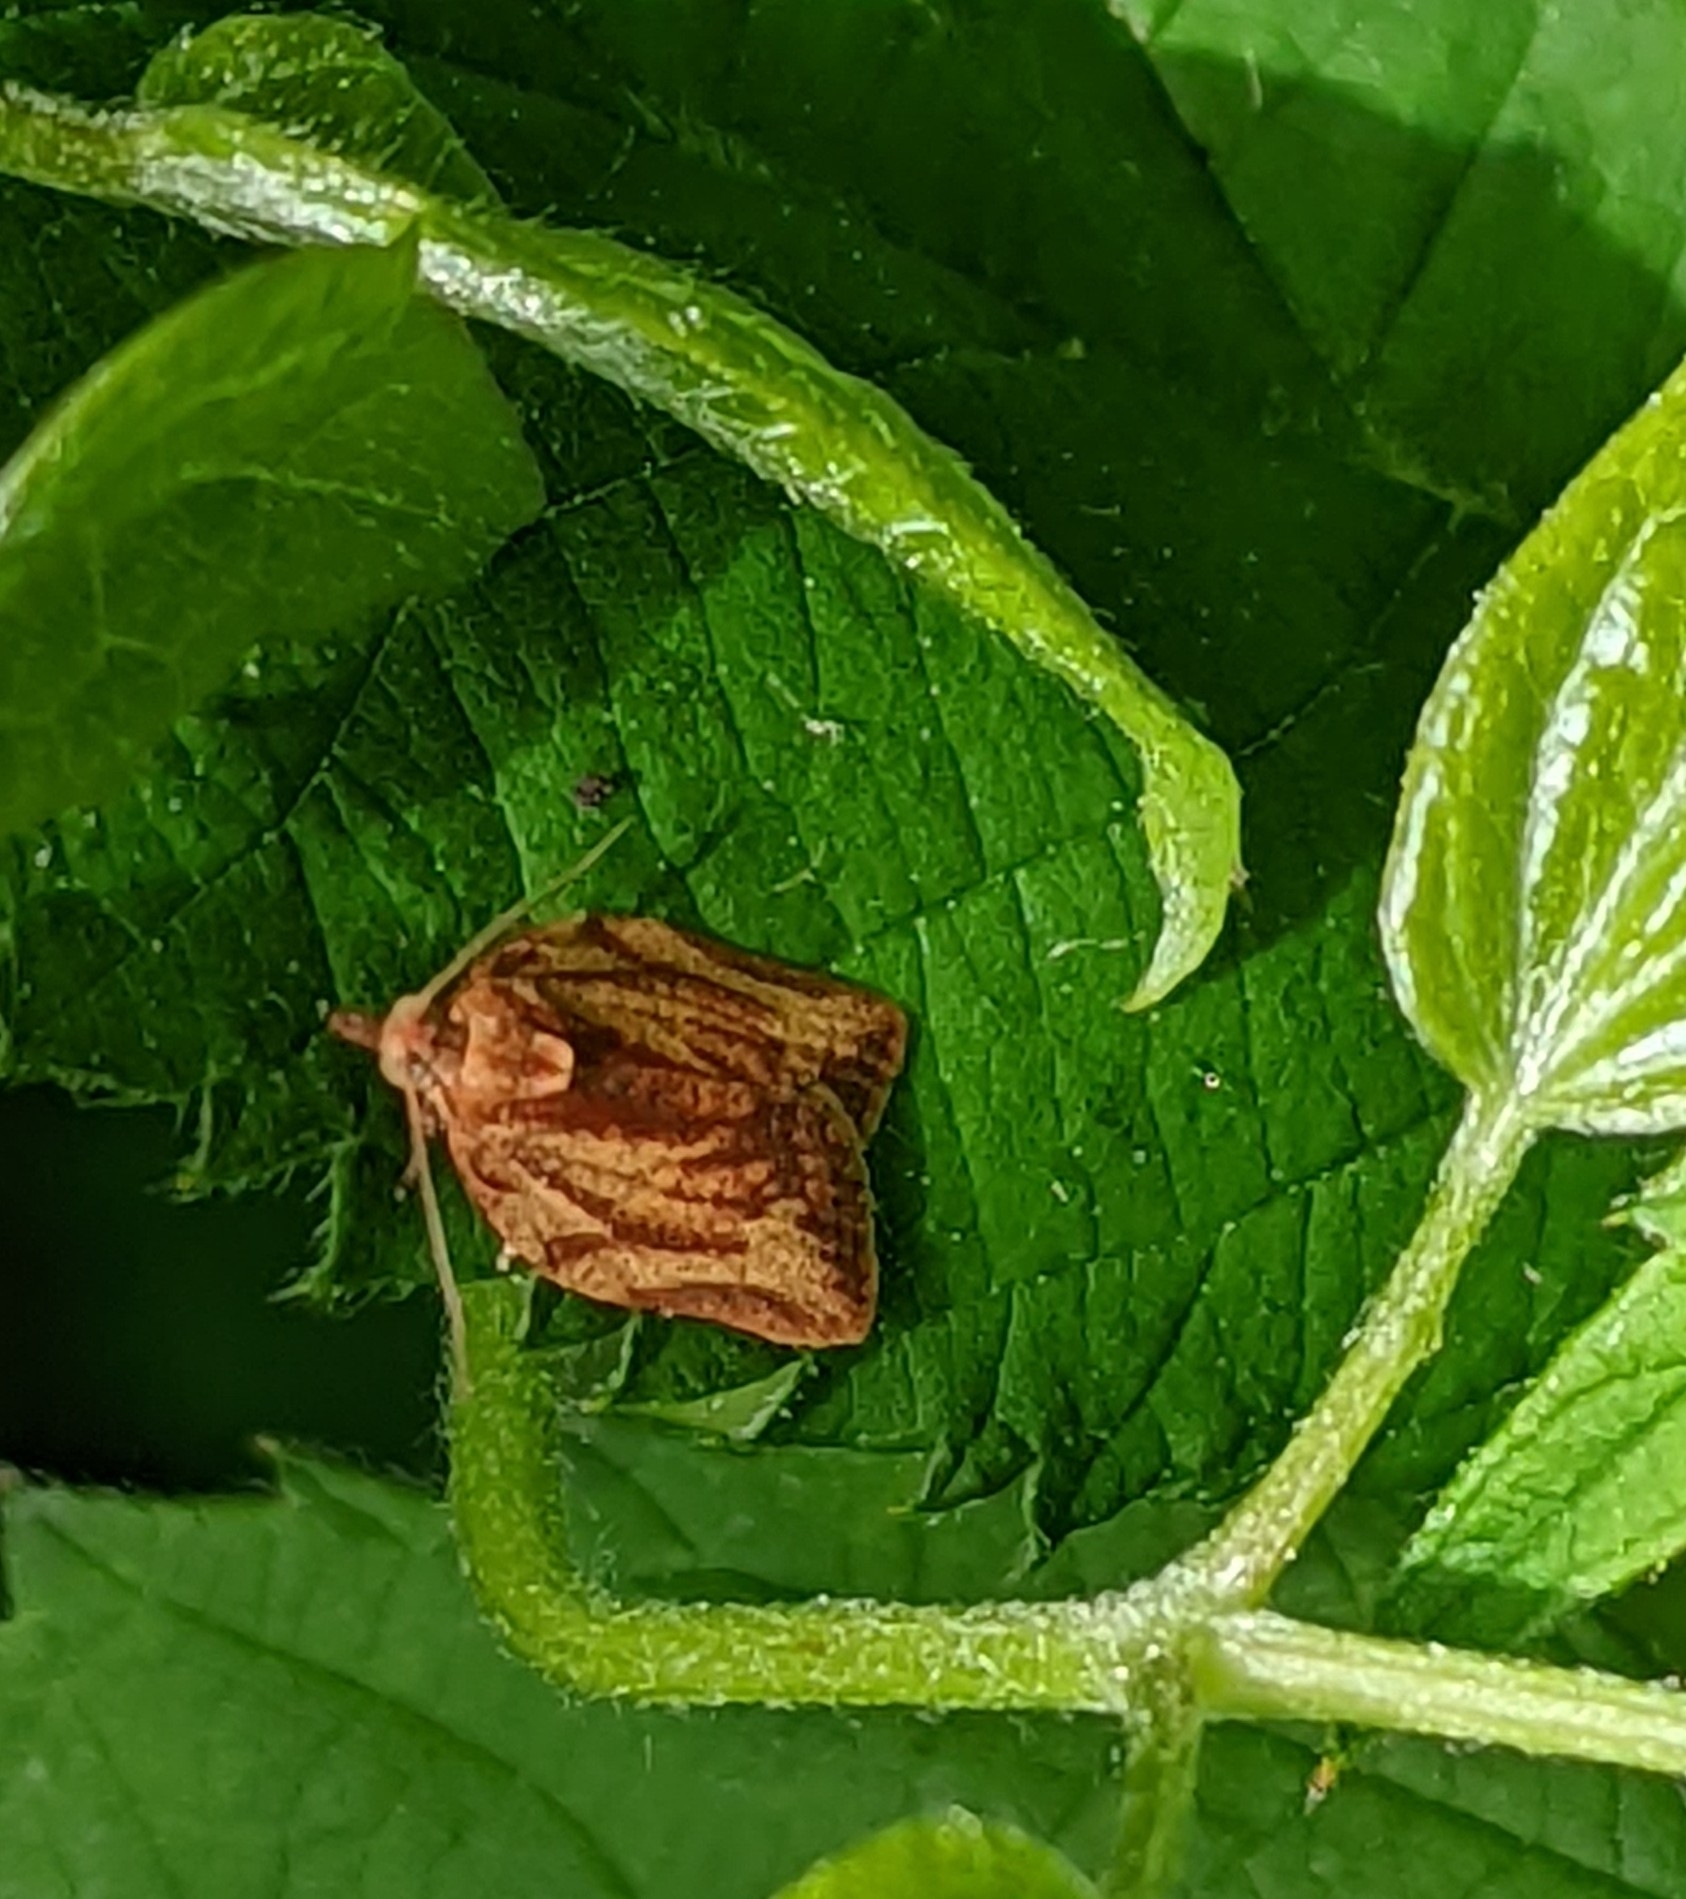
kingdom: Animalia
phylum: Arthropoda
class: Insecta
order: Lepidoptera
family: Tortricidae
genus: Epiphyas
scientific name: Epiphyas postvittana
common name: Light brown apple moth
